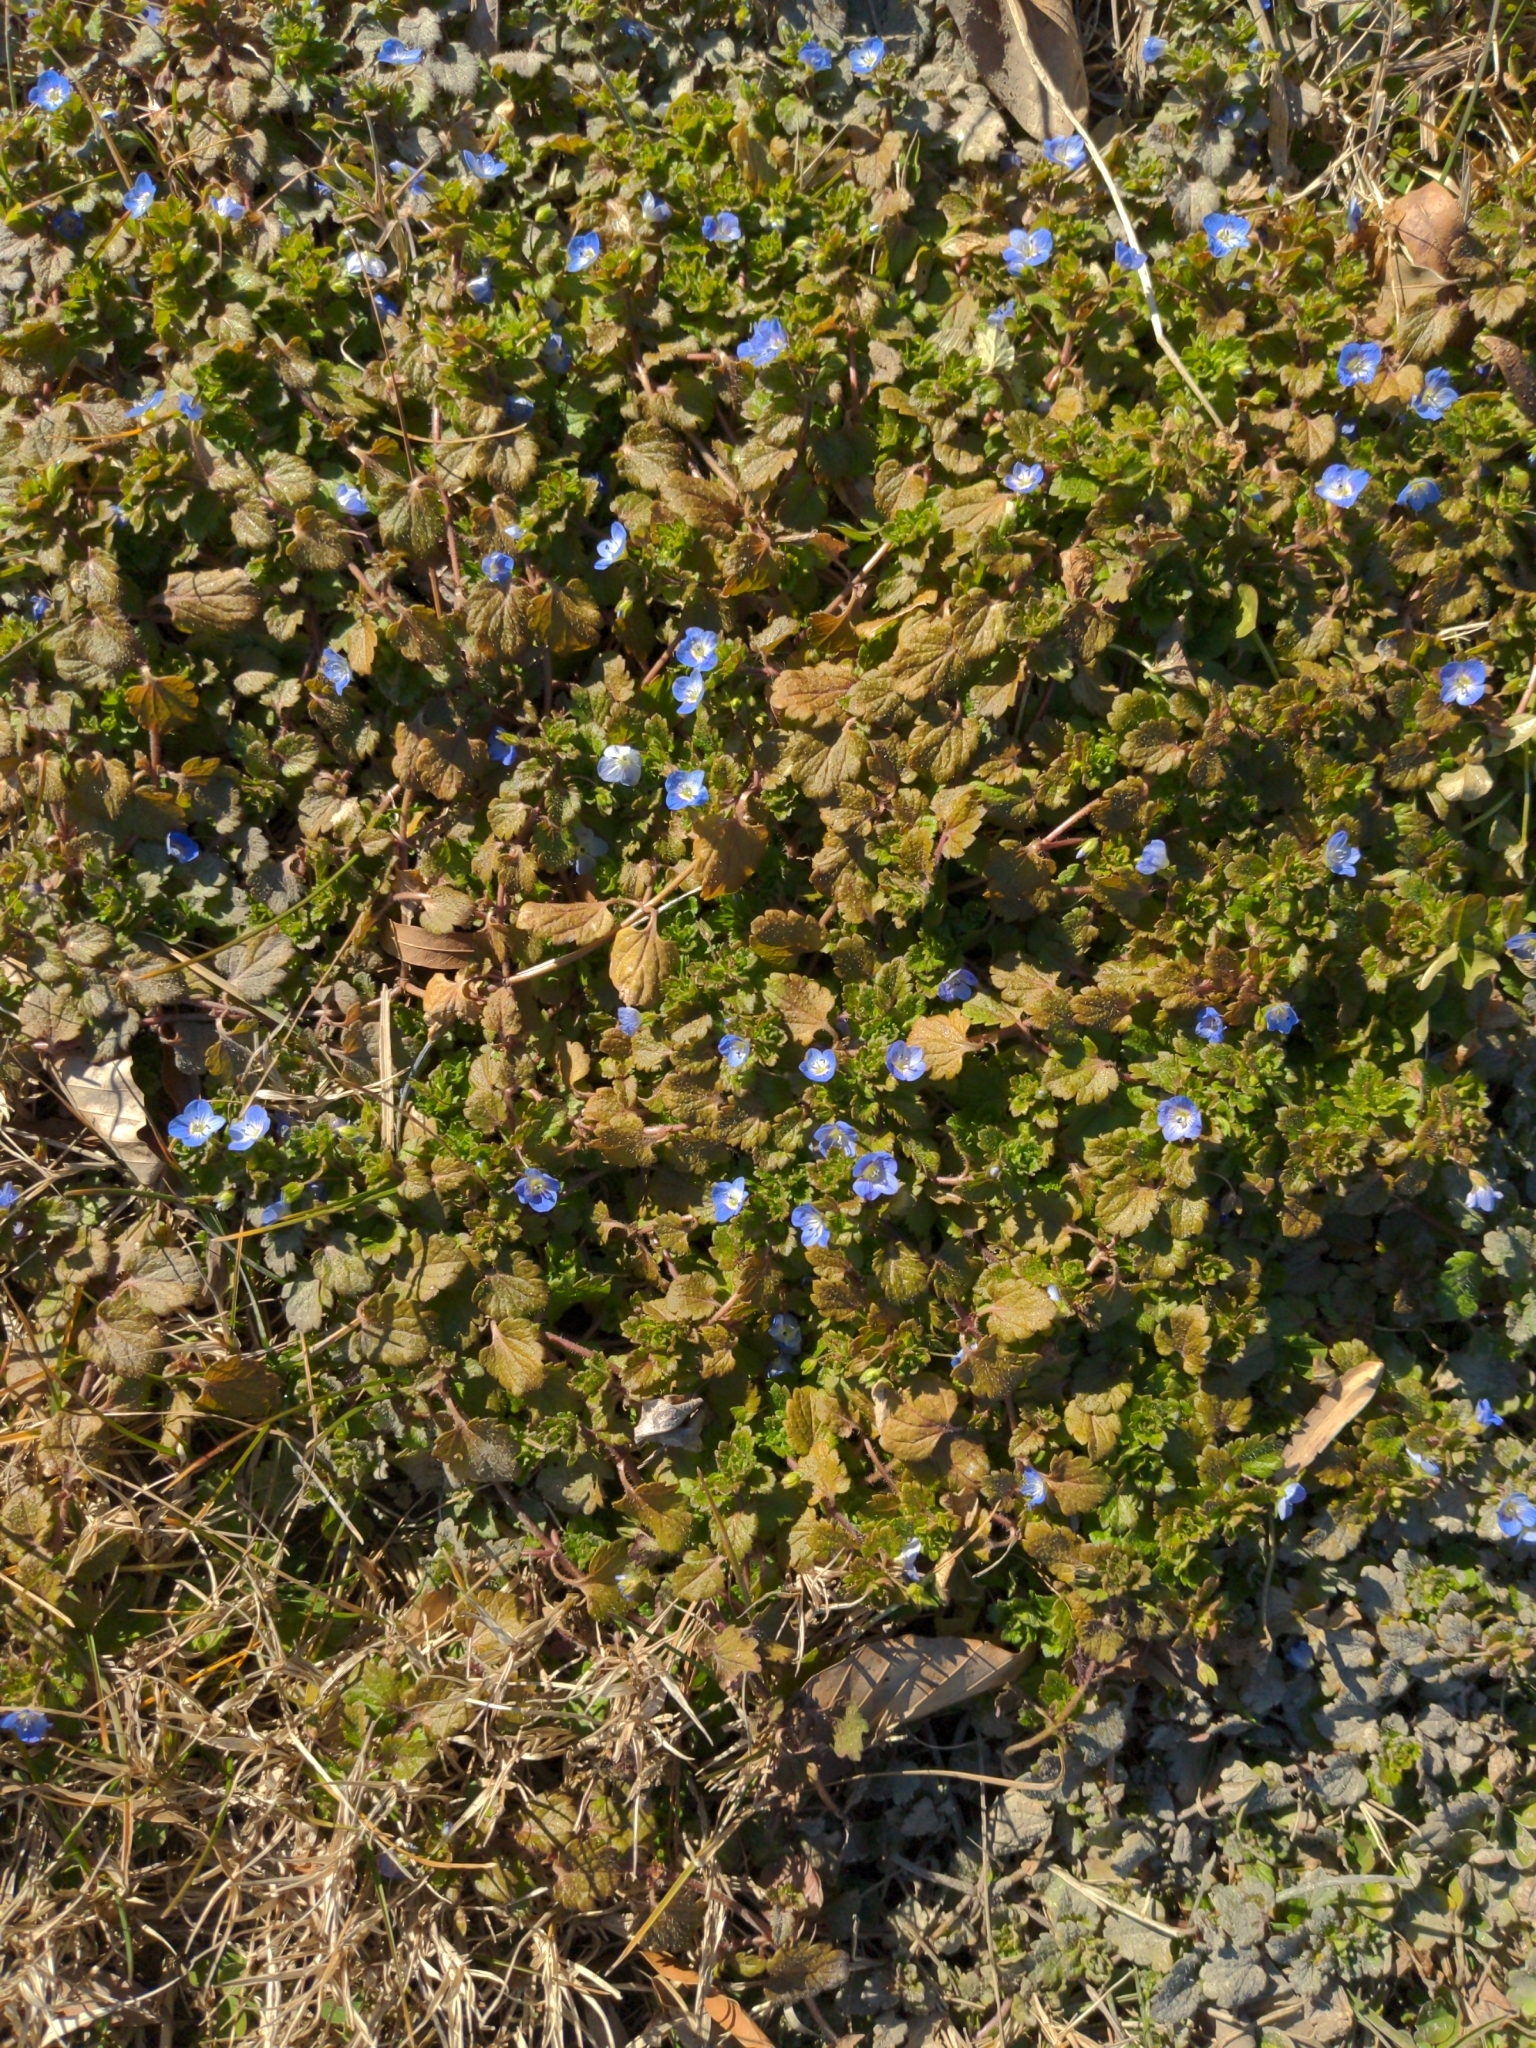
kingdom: Plantae
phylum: Tracheophyta
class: Magnoliopsida
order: Lamiales
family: Plantaginaceae
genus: Veronica
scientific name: Veronica persica
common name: Common field-speedwell
